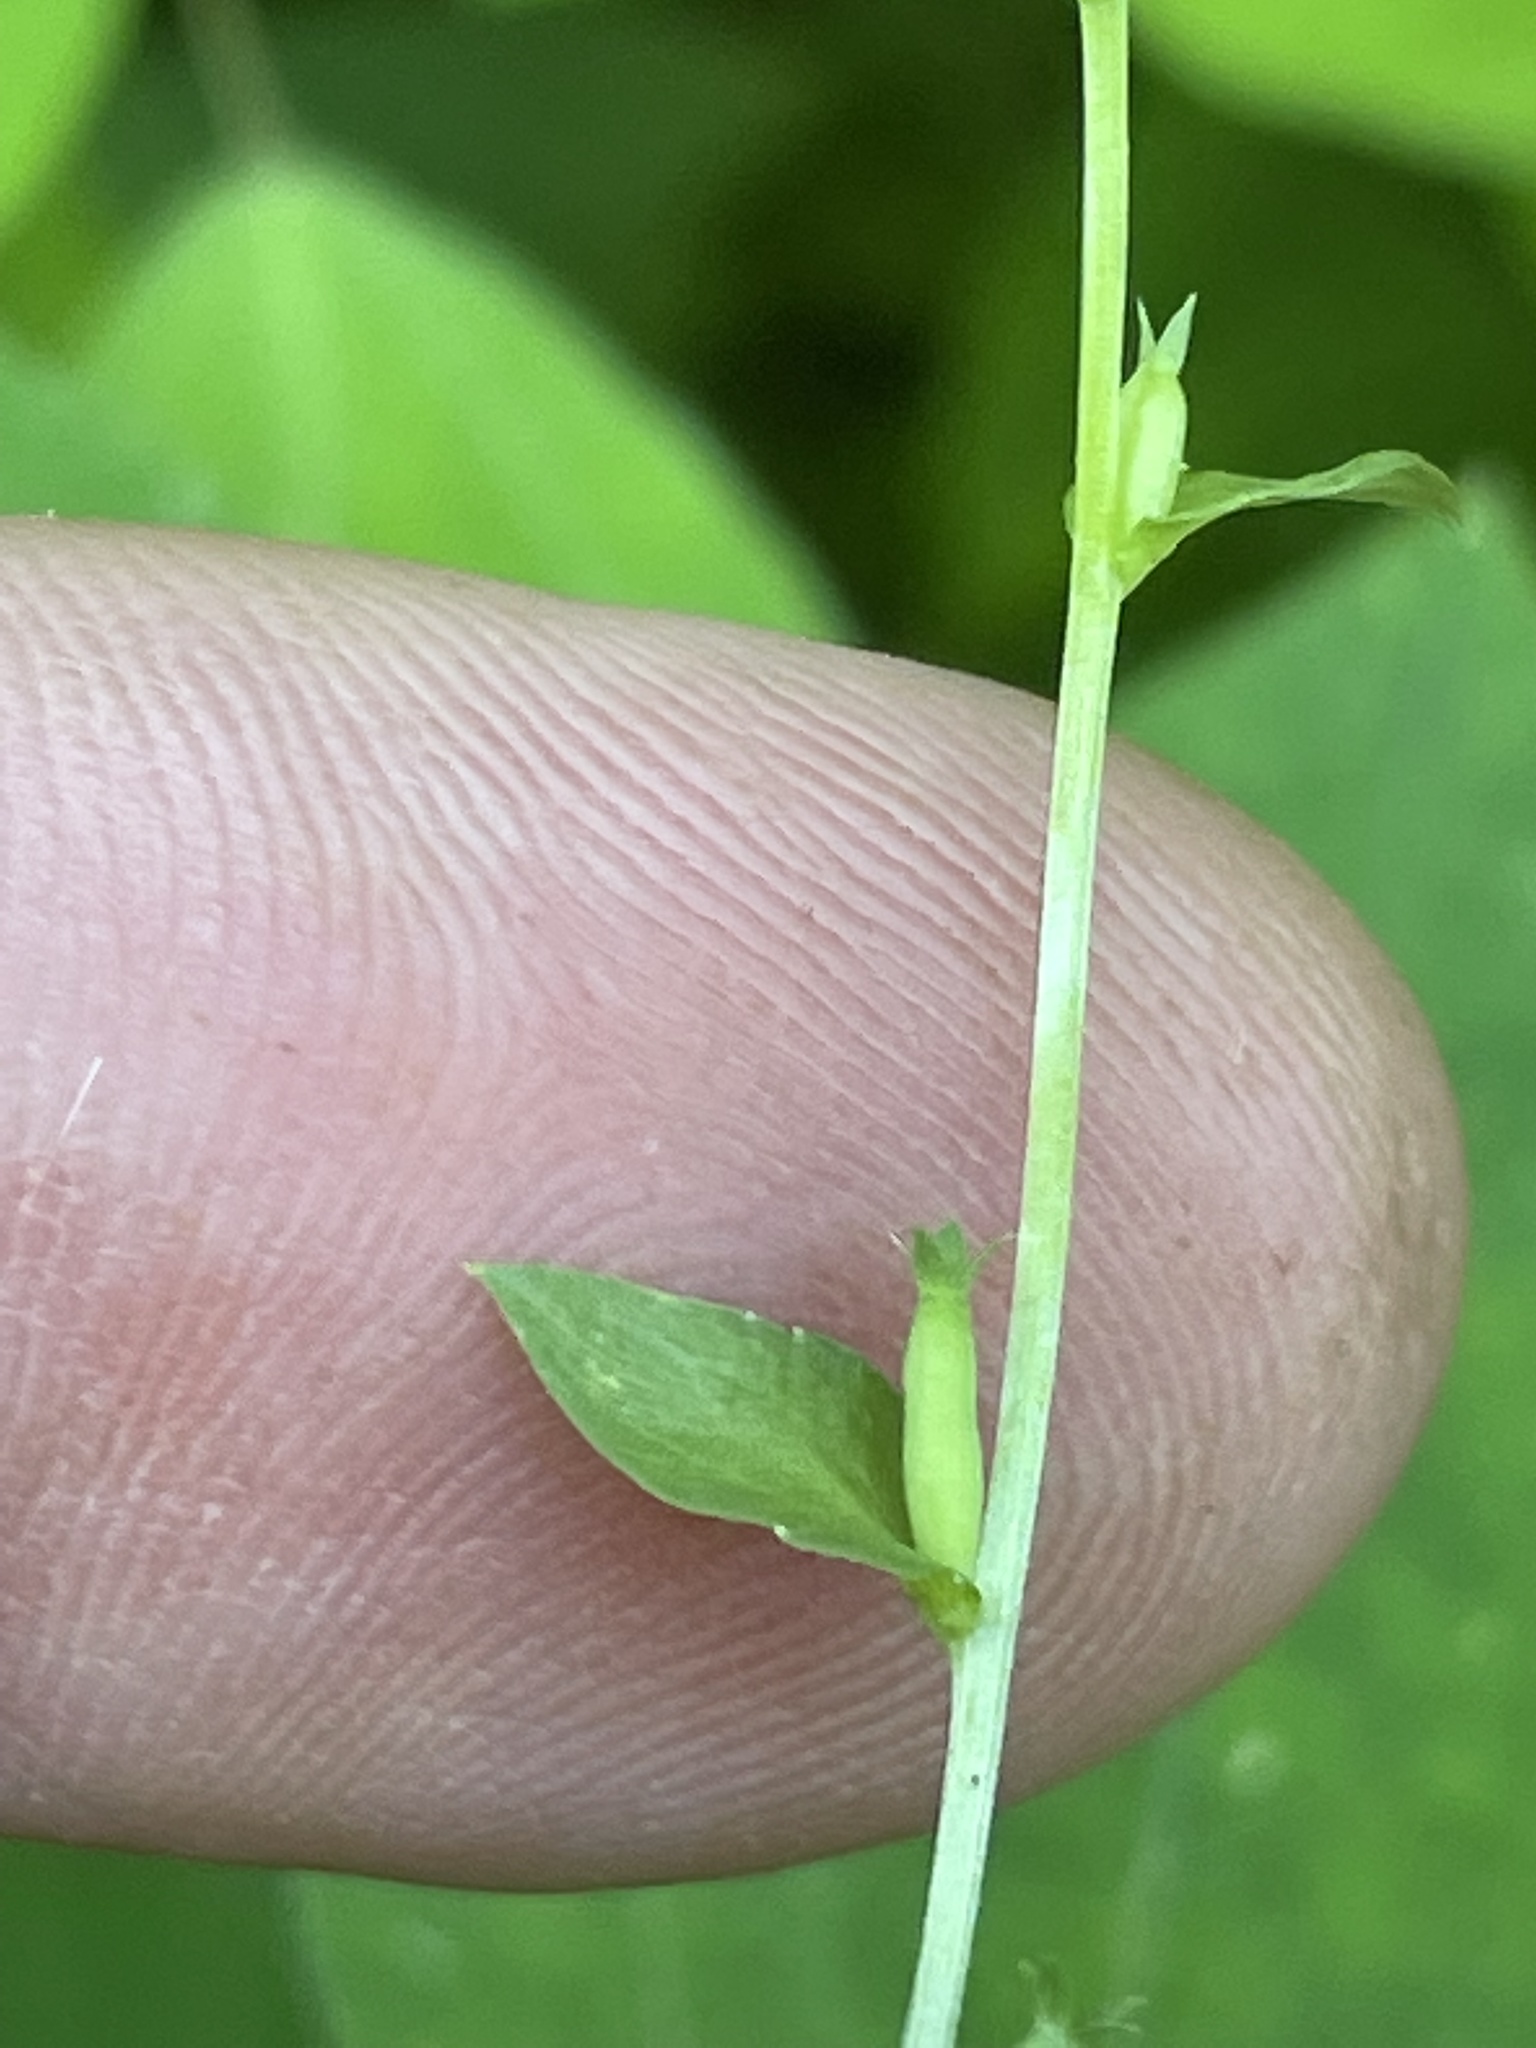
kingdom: Plantae
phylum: Tracheophyta
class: Magnoliopsida
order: Asterales
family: Campanulaceae
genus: Triodanis
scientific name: Triodanis biflora
